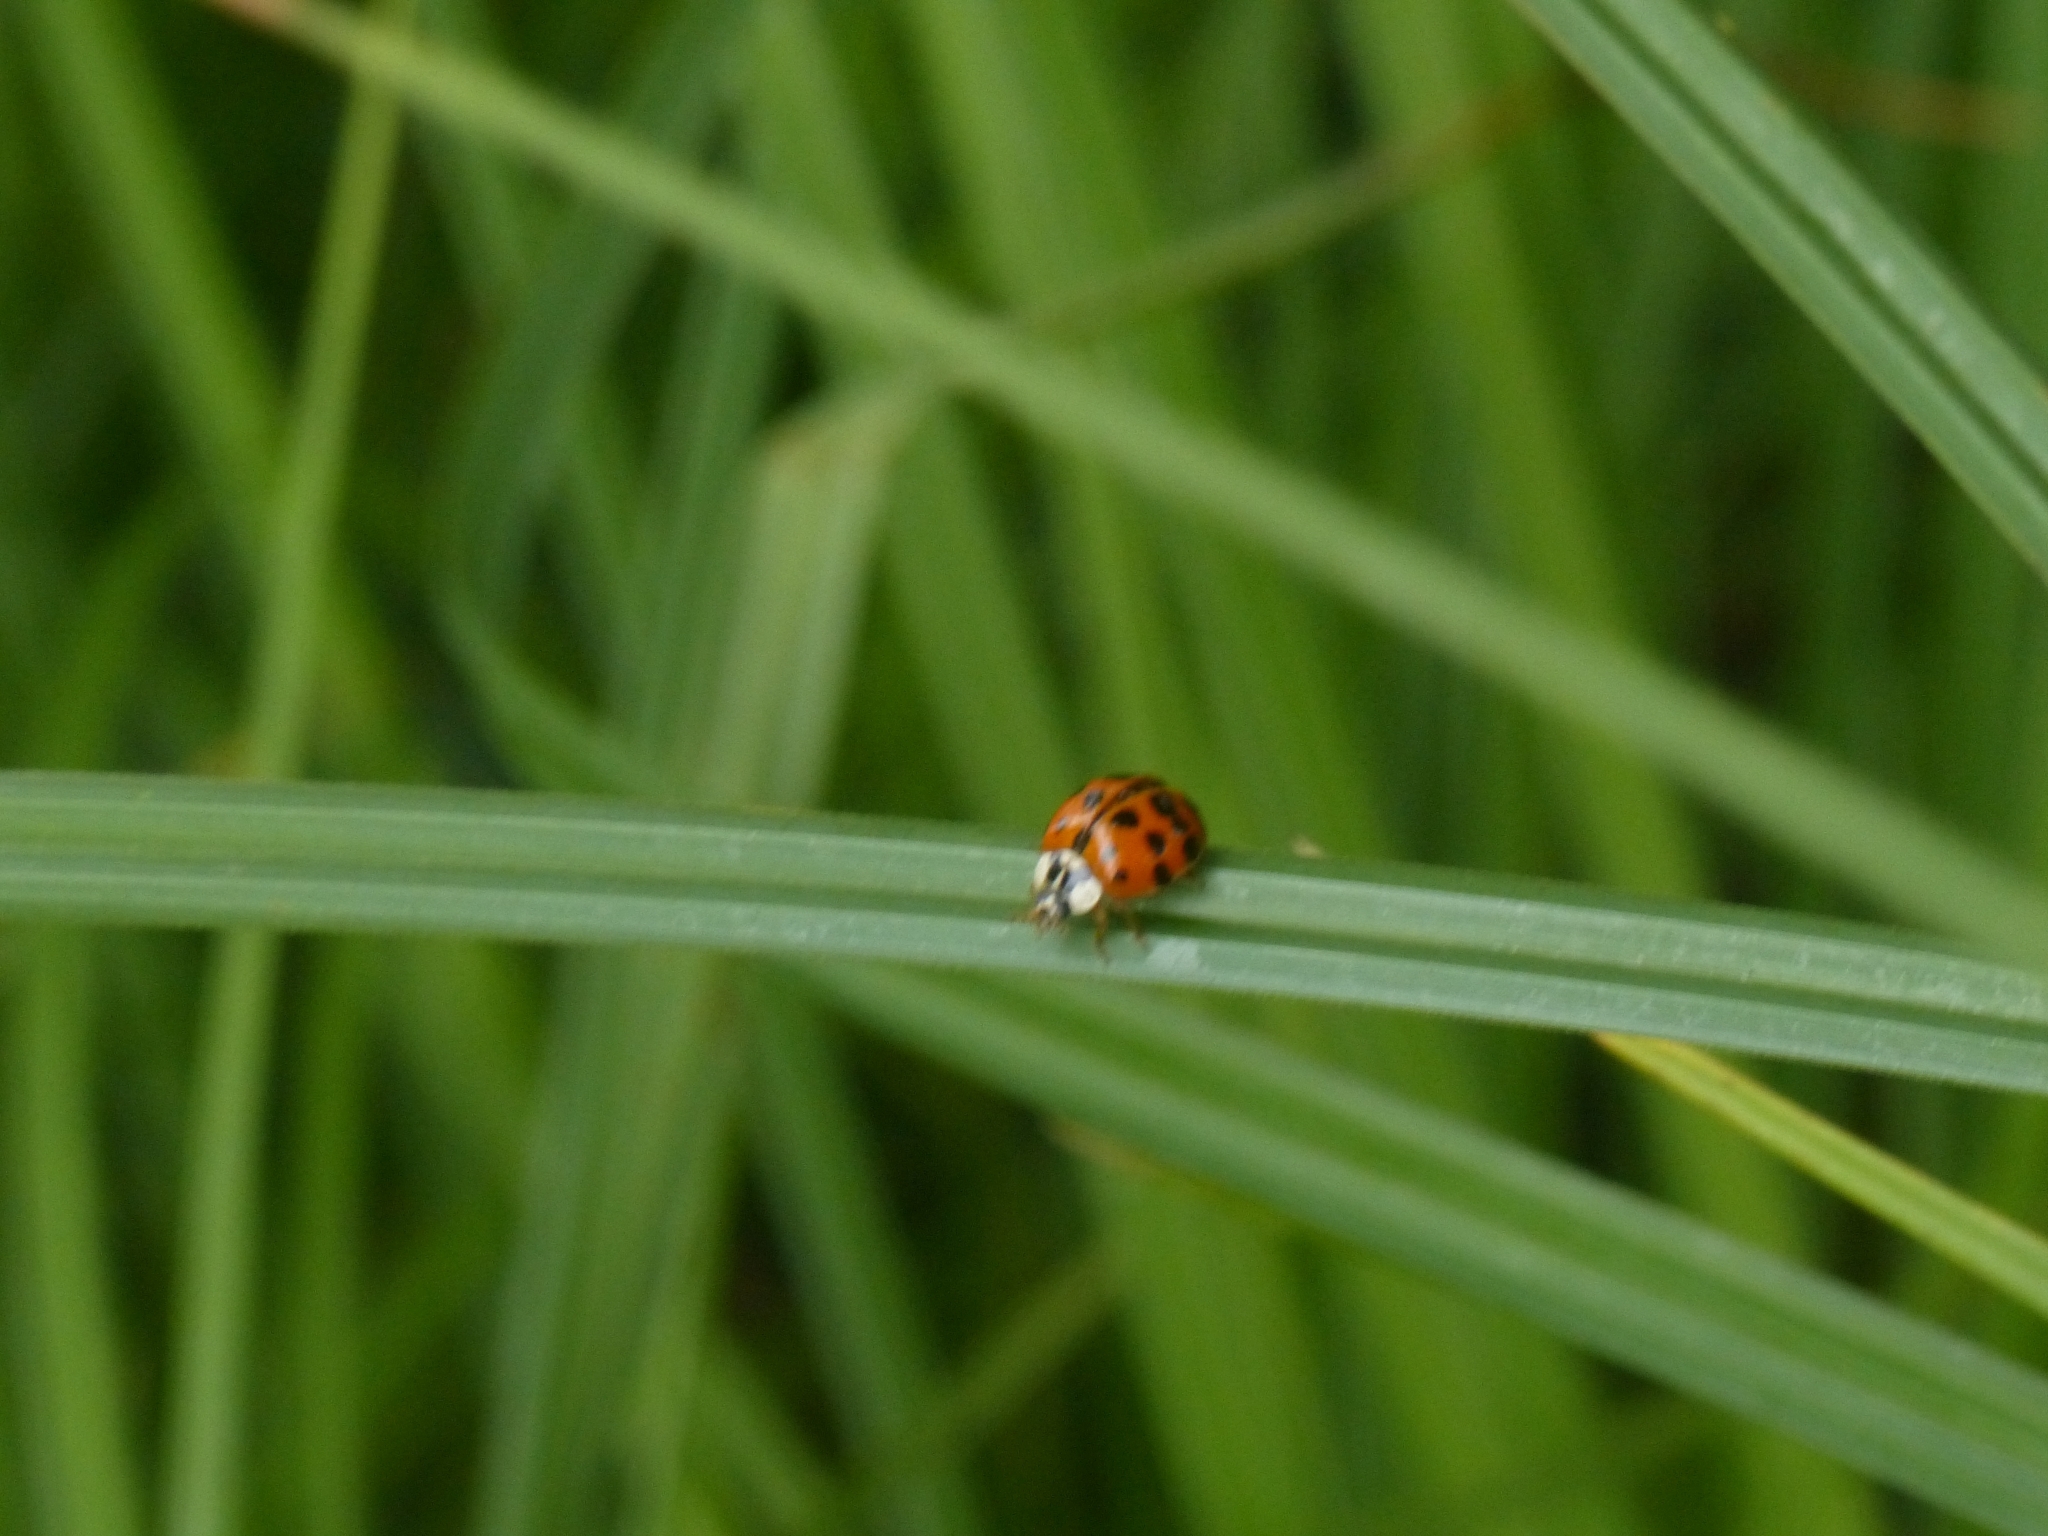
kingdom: Animalia
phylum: Arthropoda
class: Insecta
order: Coleoptera
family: Coccinellidae
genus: Harmonia
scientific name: Harmonia axyridis
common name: Harlequin ladybird
